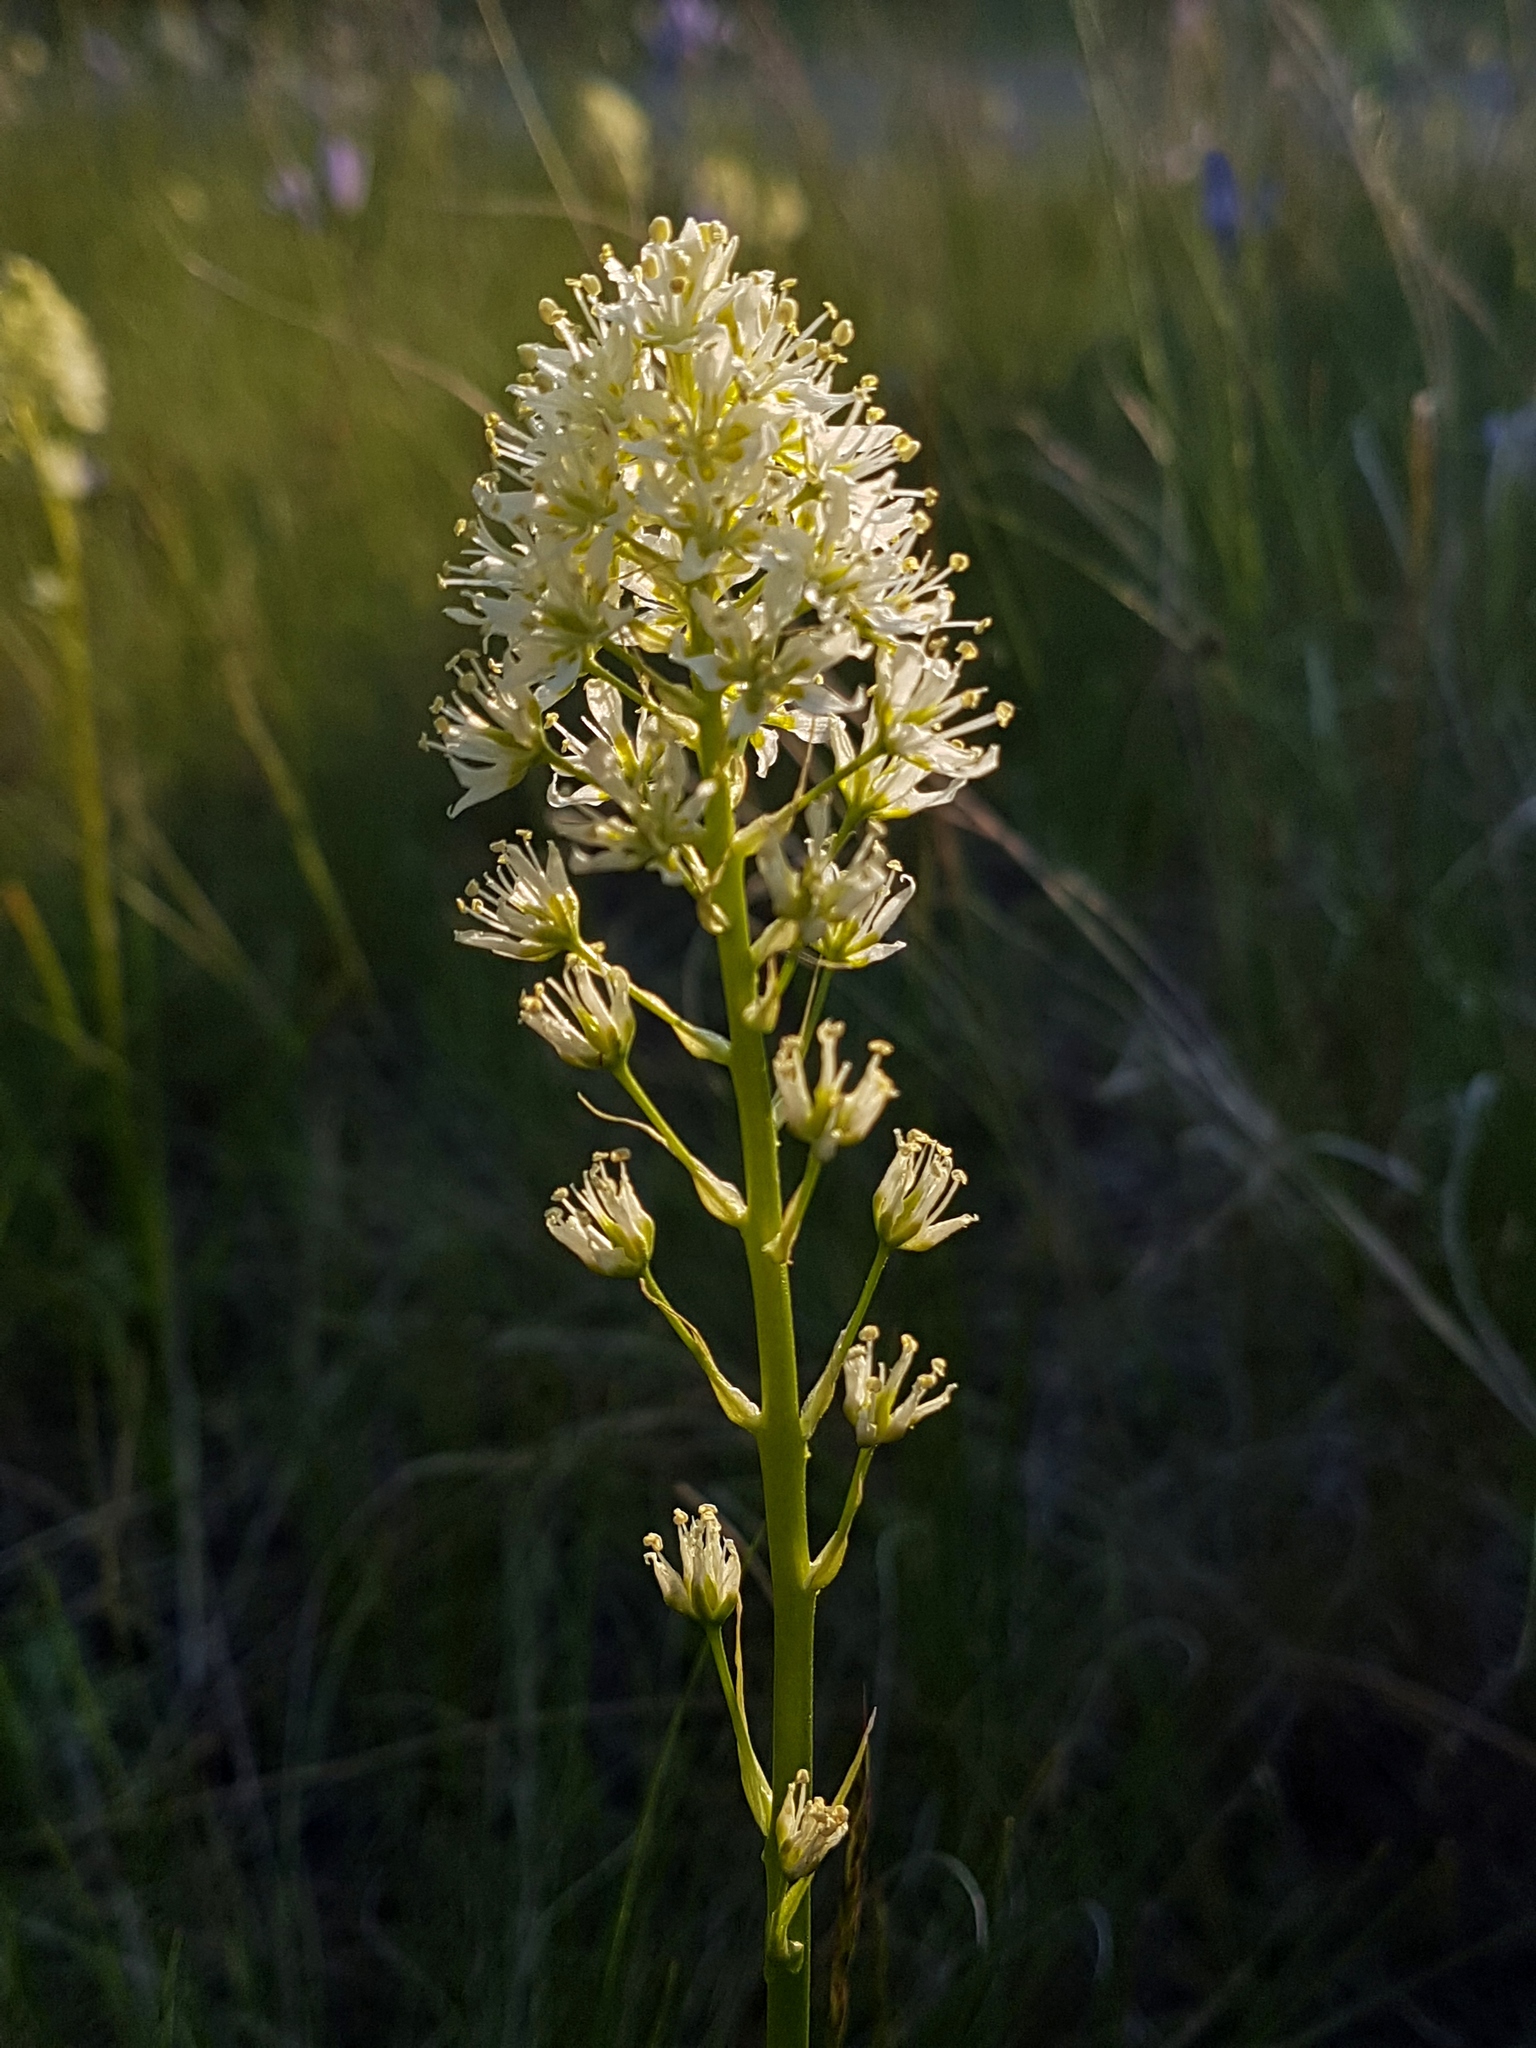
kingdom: Plantae
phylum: Tracheophyta
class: Liliopsida
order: Liliales
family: Melanthiaceae
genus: Toxicoscordion
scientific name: Toxicoscordion venenosum
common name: Meadow death camas
